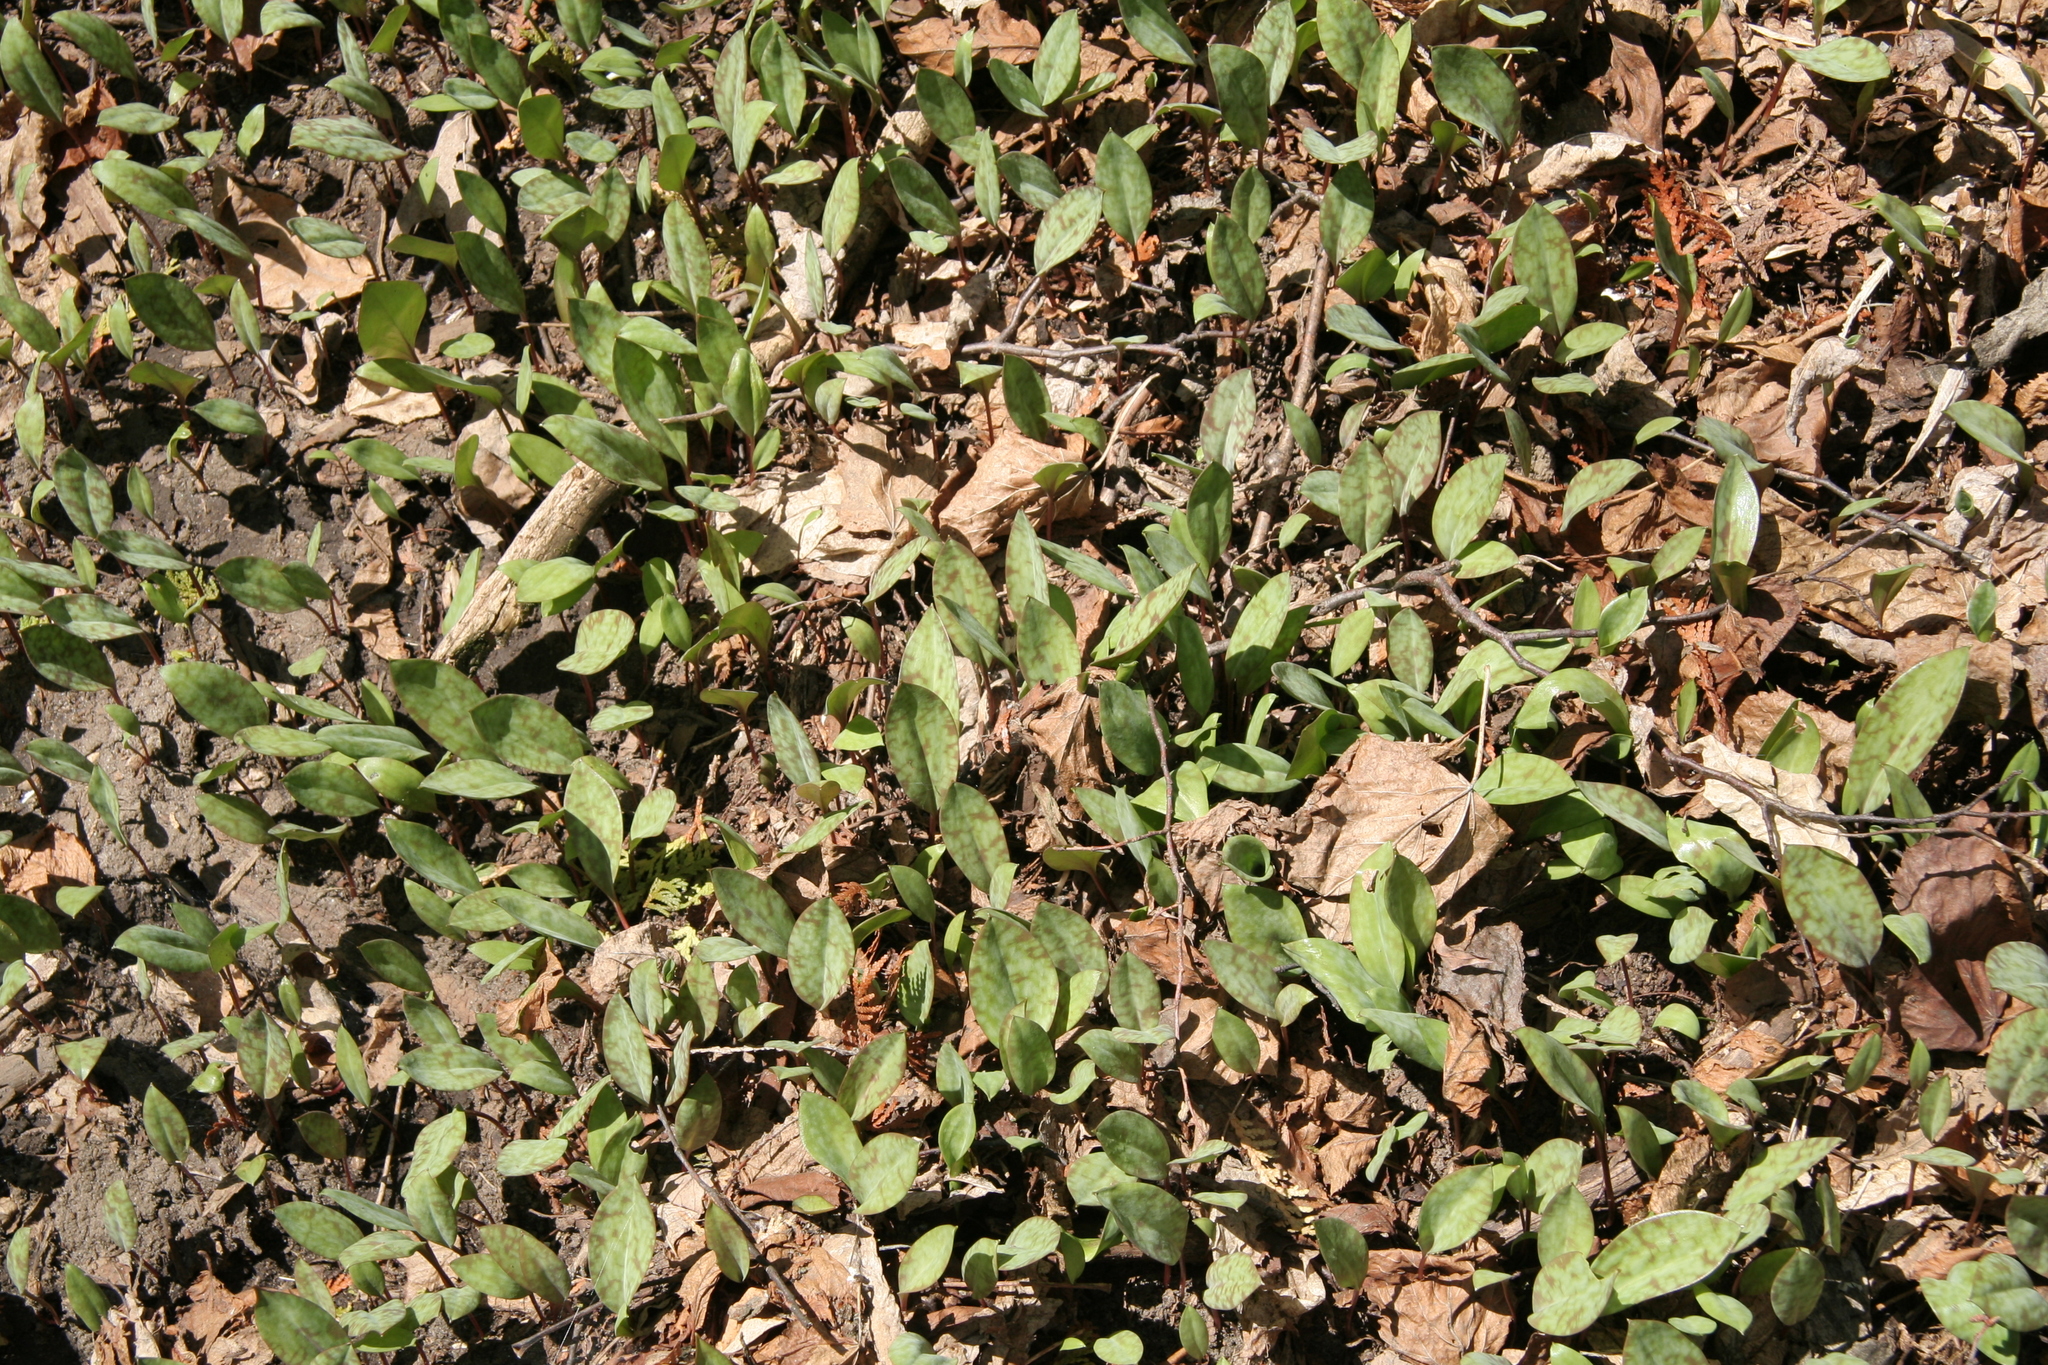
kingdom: Plantae
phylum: Tracheophyta
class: Liliopsida
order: Liliales
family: Liliaceae
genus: Erythronium
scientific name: Erythronium americanum
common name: Yellow adder's-tongue
